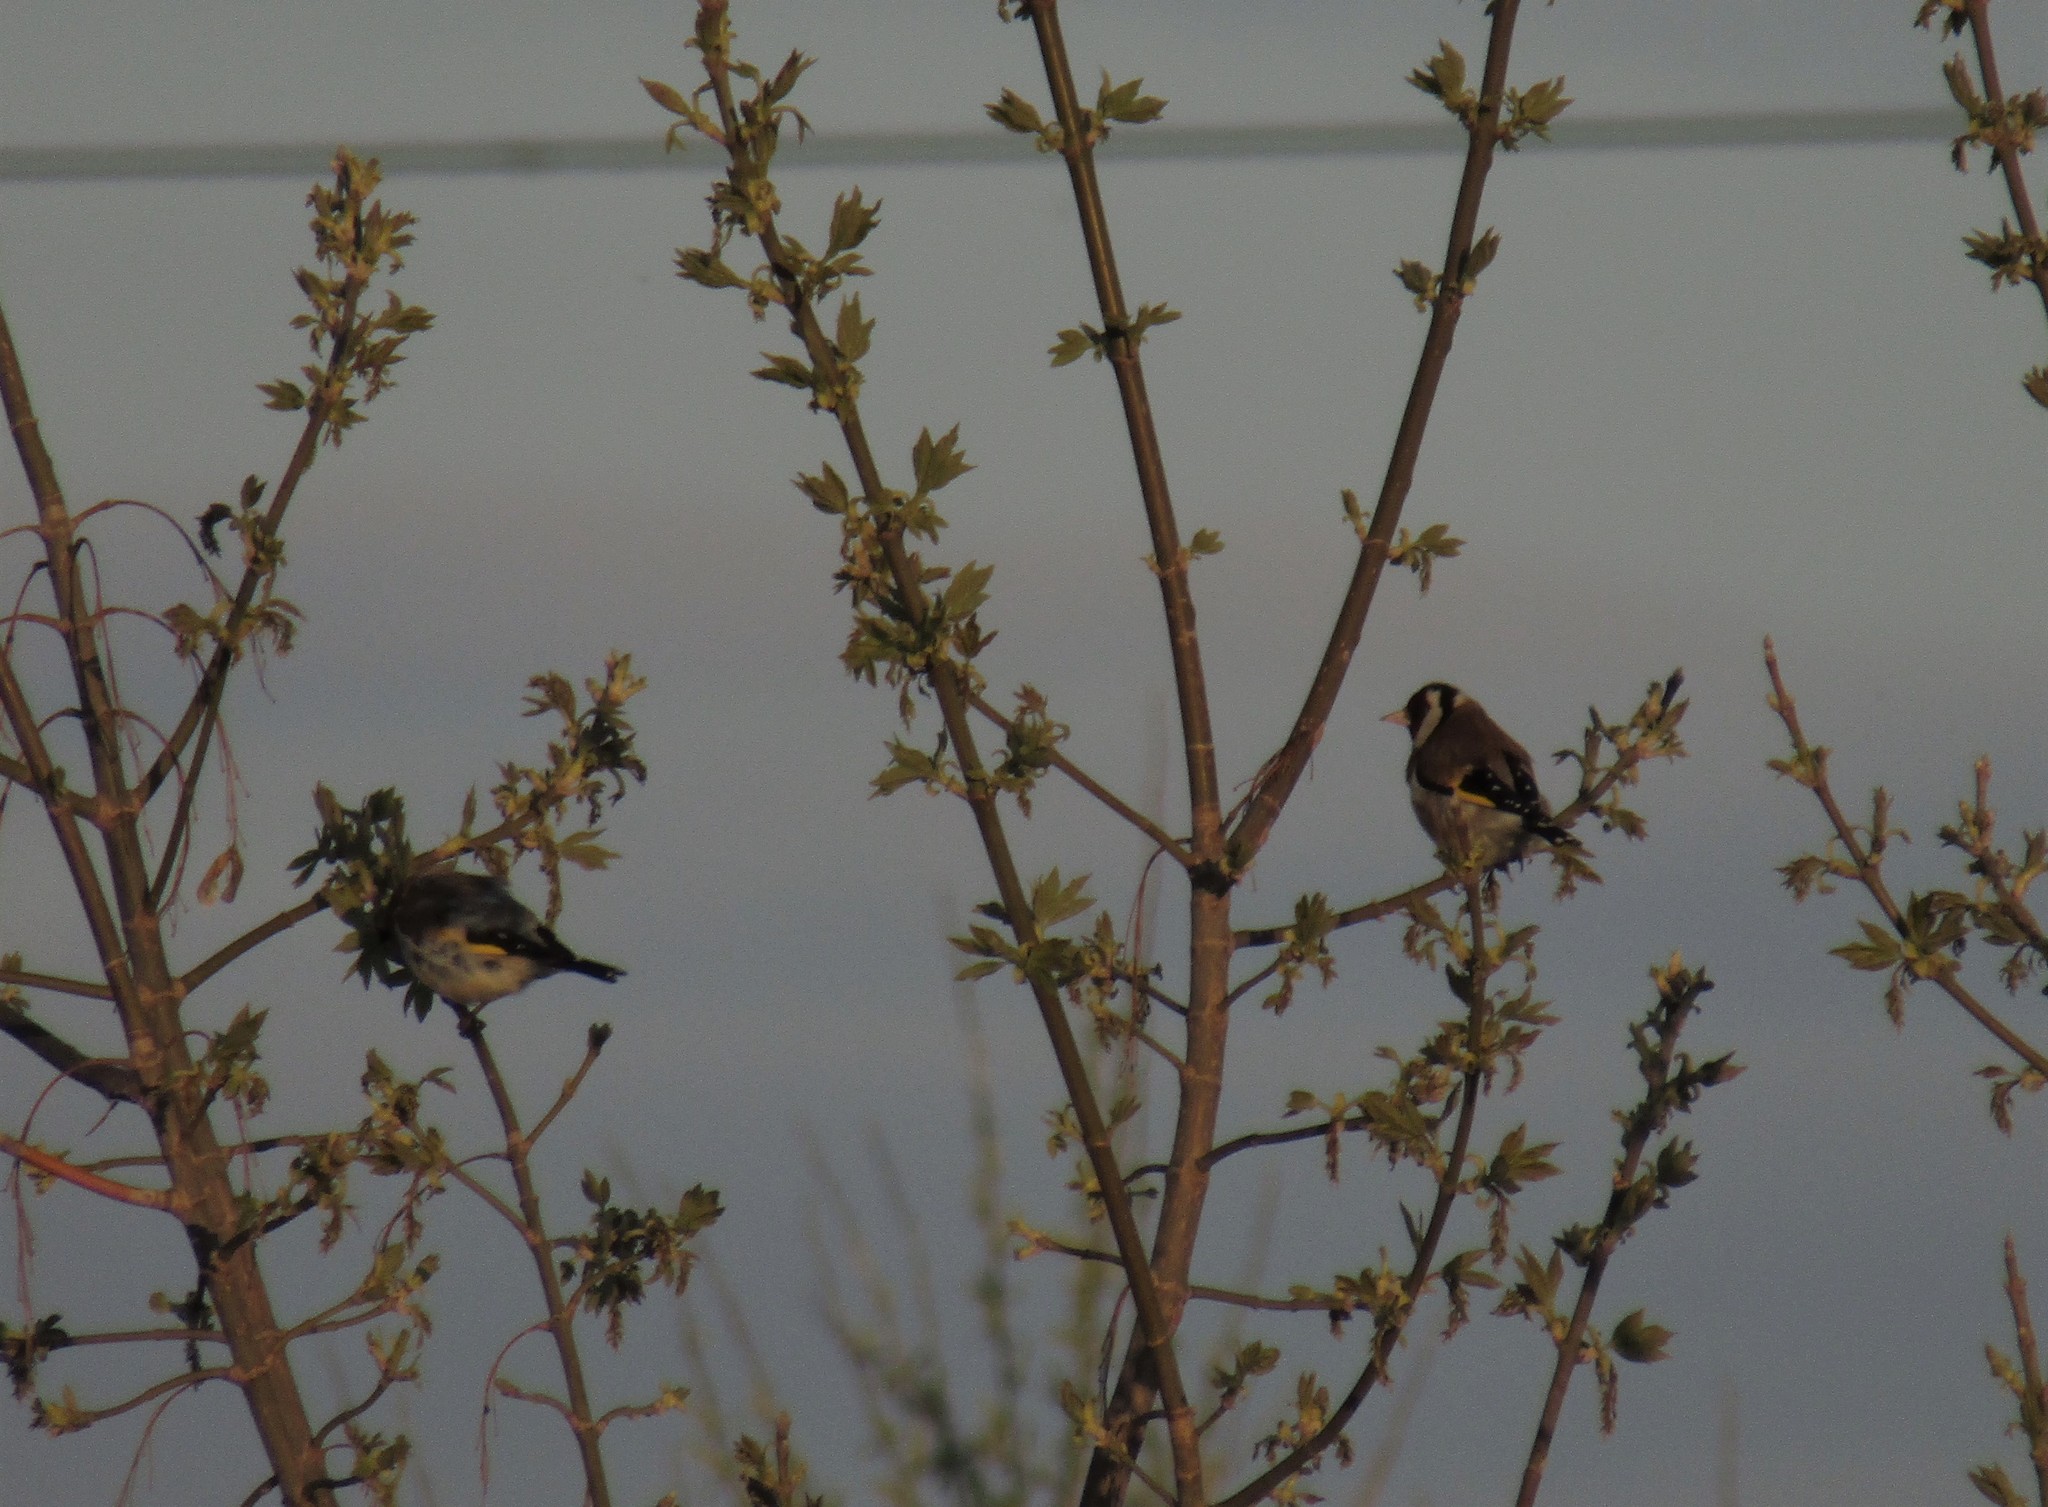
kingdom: Animalia
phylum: Chordata
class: Aves
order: Passeriformes
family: Fringillidae
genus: Carduelis
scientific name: Carduelis carduelis
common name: European goldfinch
